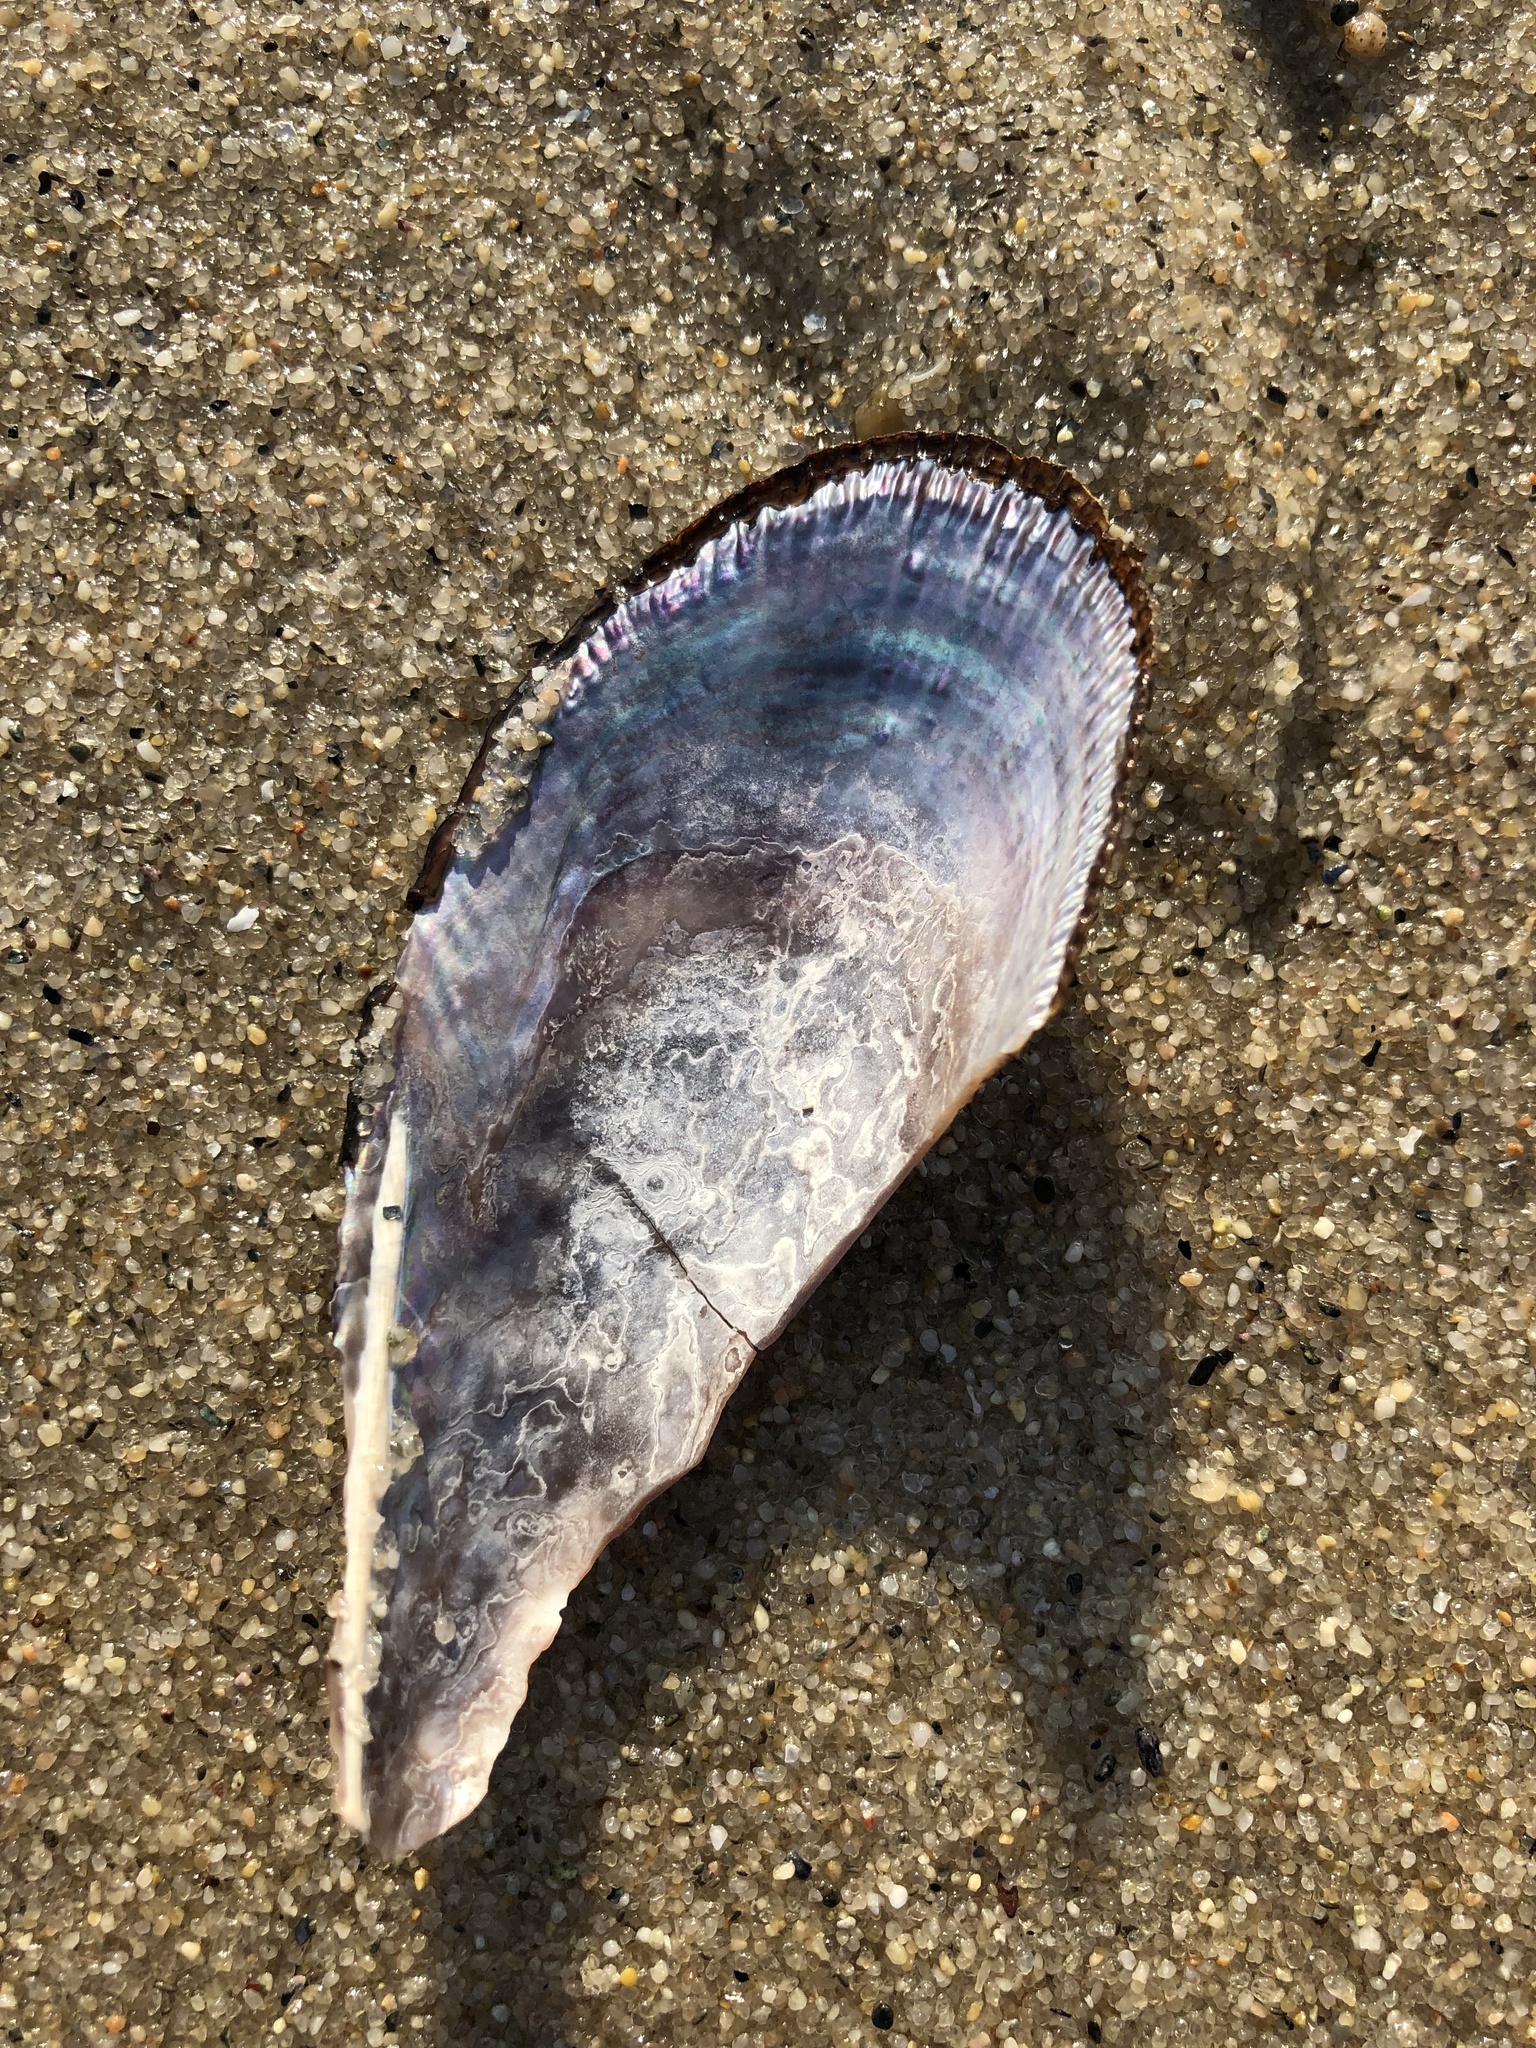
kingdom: Animalia
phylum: Mollusca
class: Bivalvia
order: Mytilida
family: Mytilidae
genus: Geukensia
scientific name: Geukensia demissa
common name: Ribbed mussel
